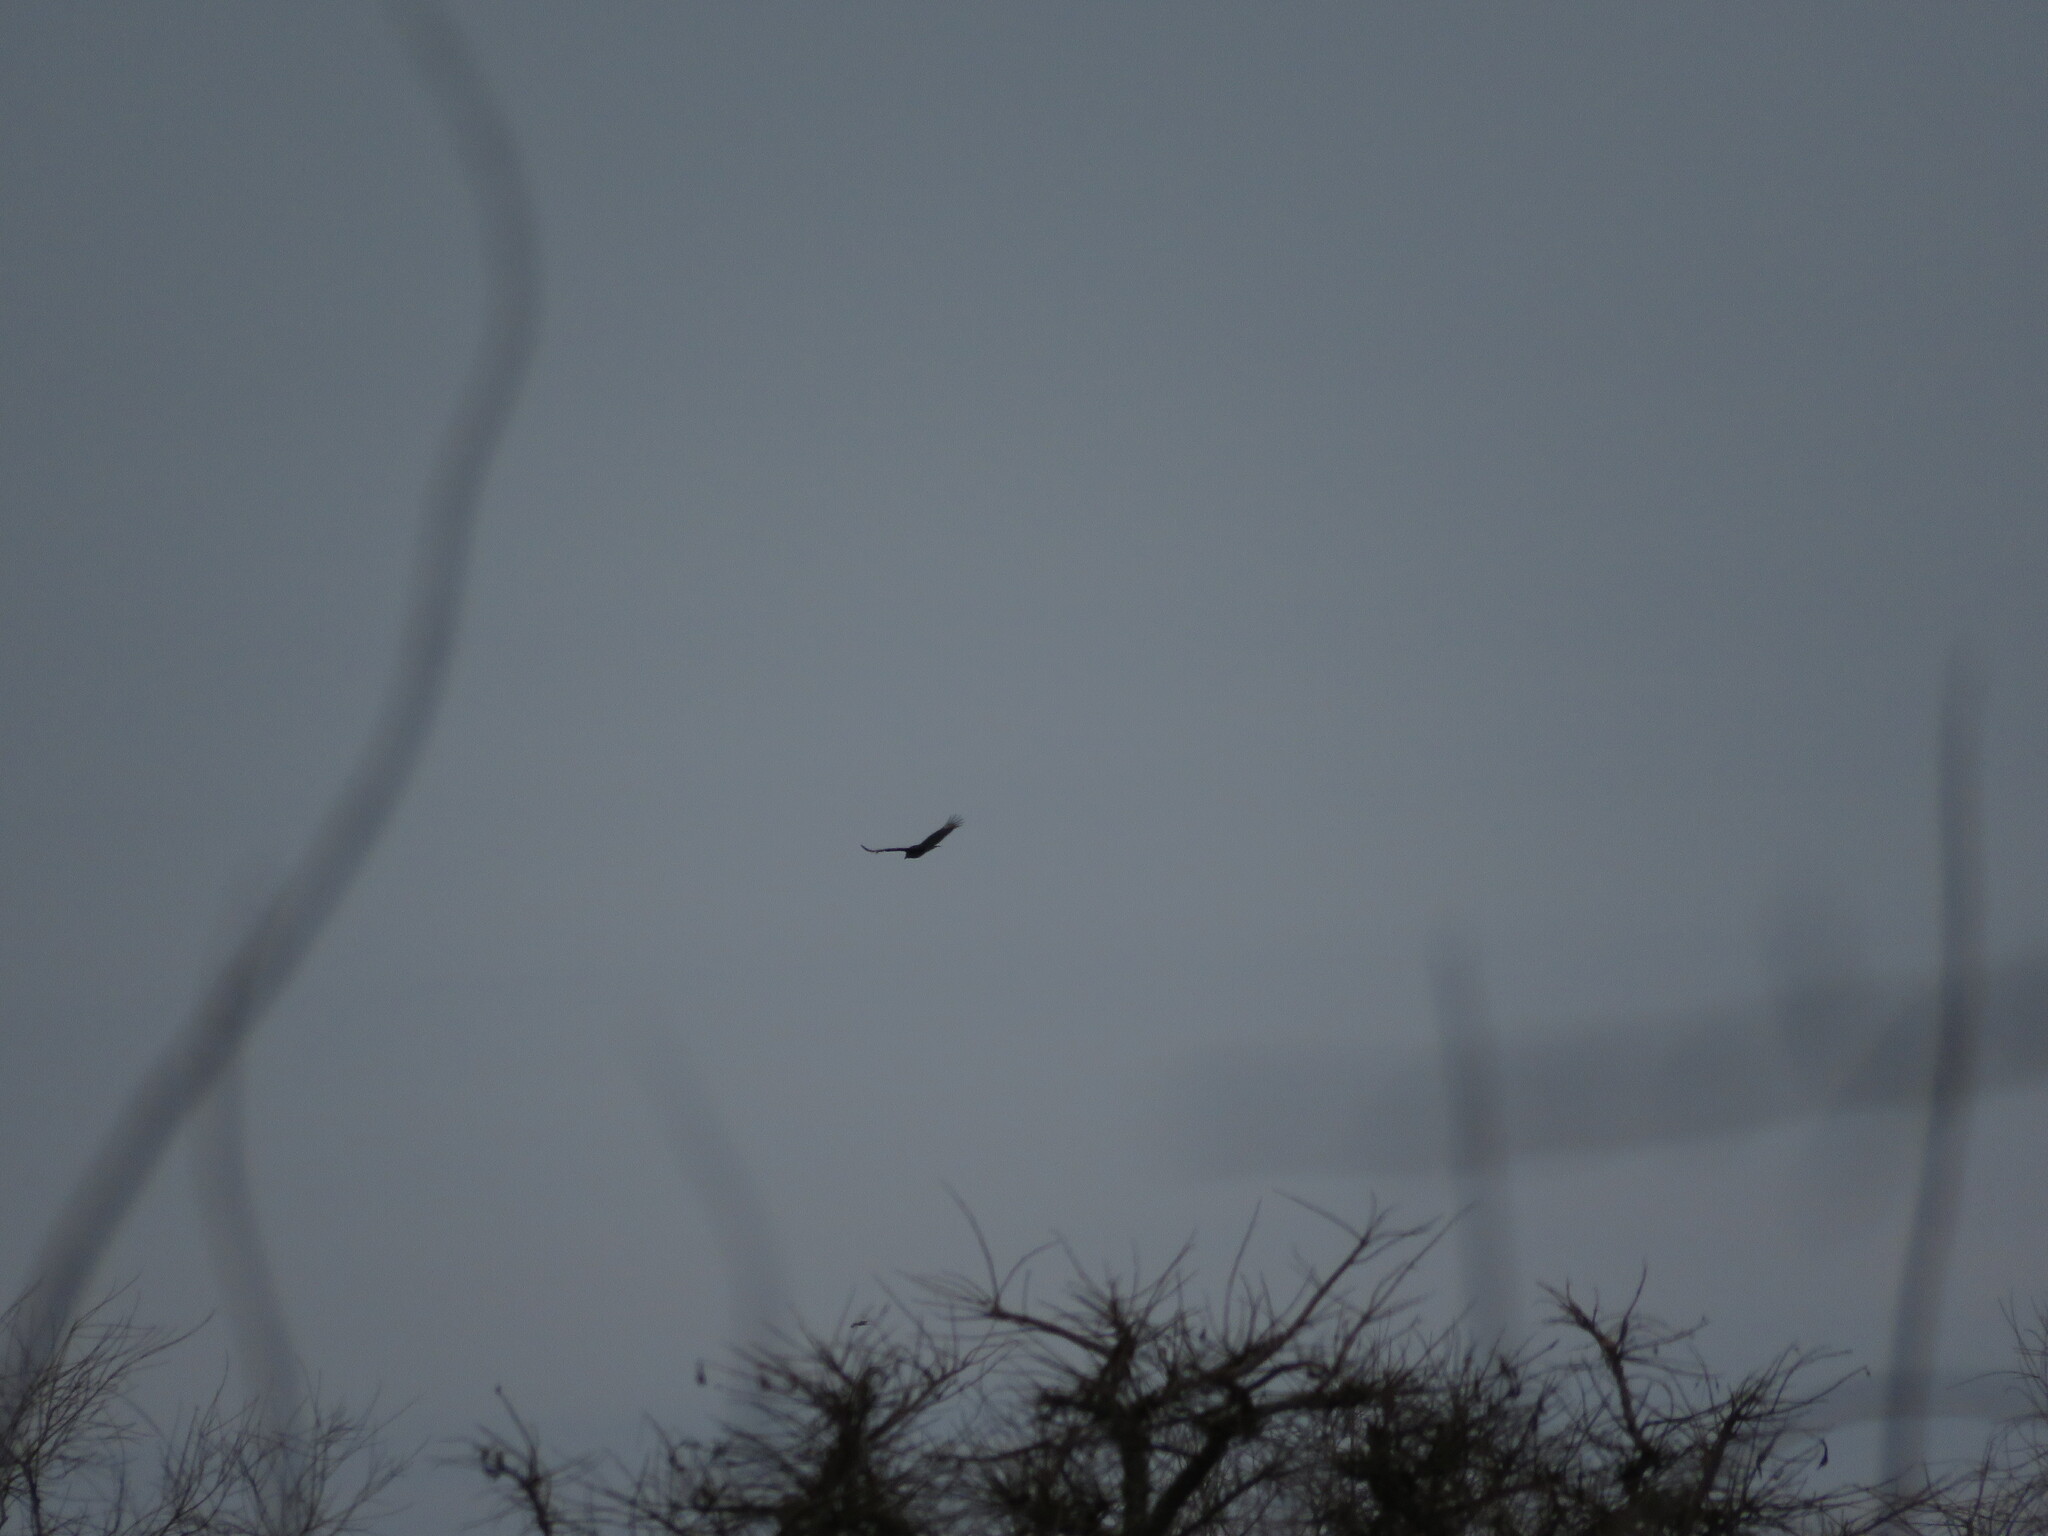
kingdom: Animalia
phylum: Chordata
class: Aves
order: Accipitriformes
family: Cathartidae
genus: Coragyps
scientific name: Coragyps atratus
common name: Black vulture
